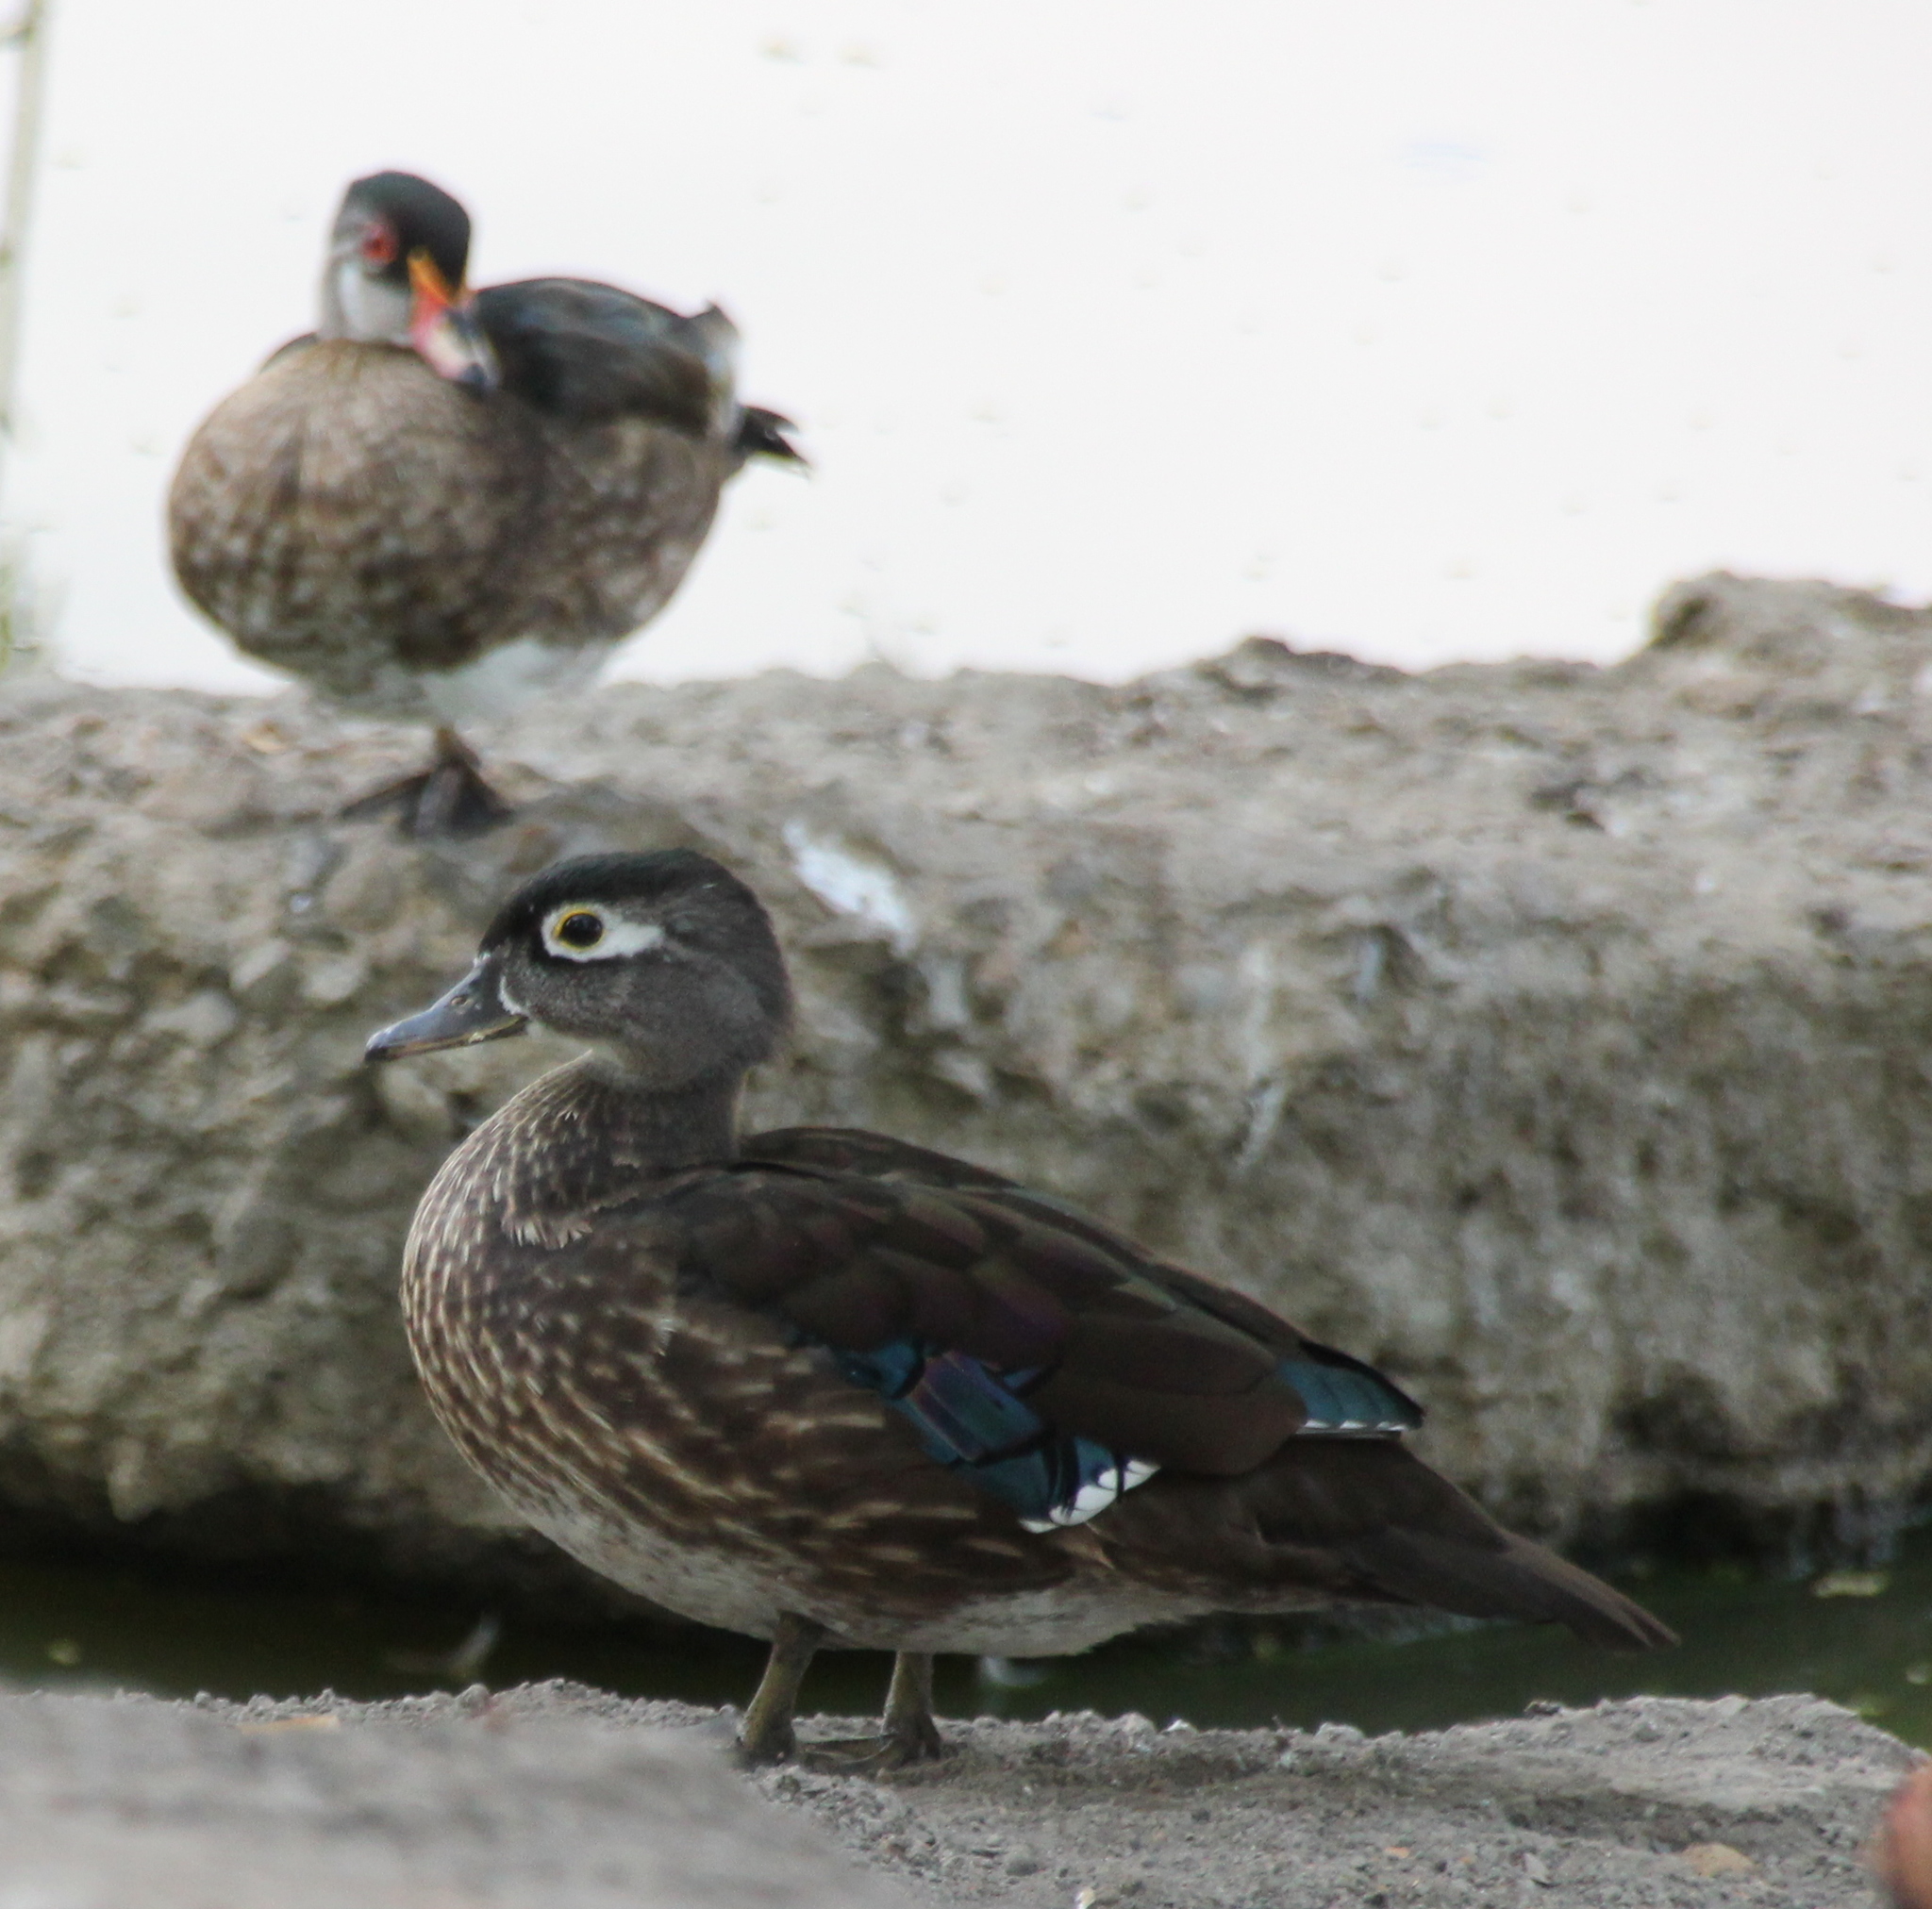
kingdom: Animalia
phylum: Chordata
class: Aves
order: Anseriformes
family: Anatidae
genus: Aix
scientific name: Aix sponsa
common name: Wood duck
